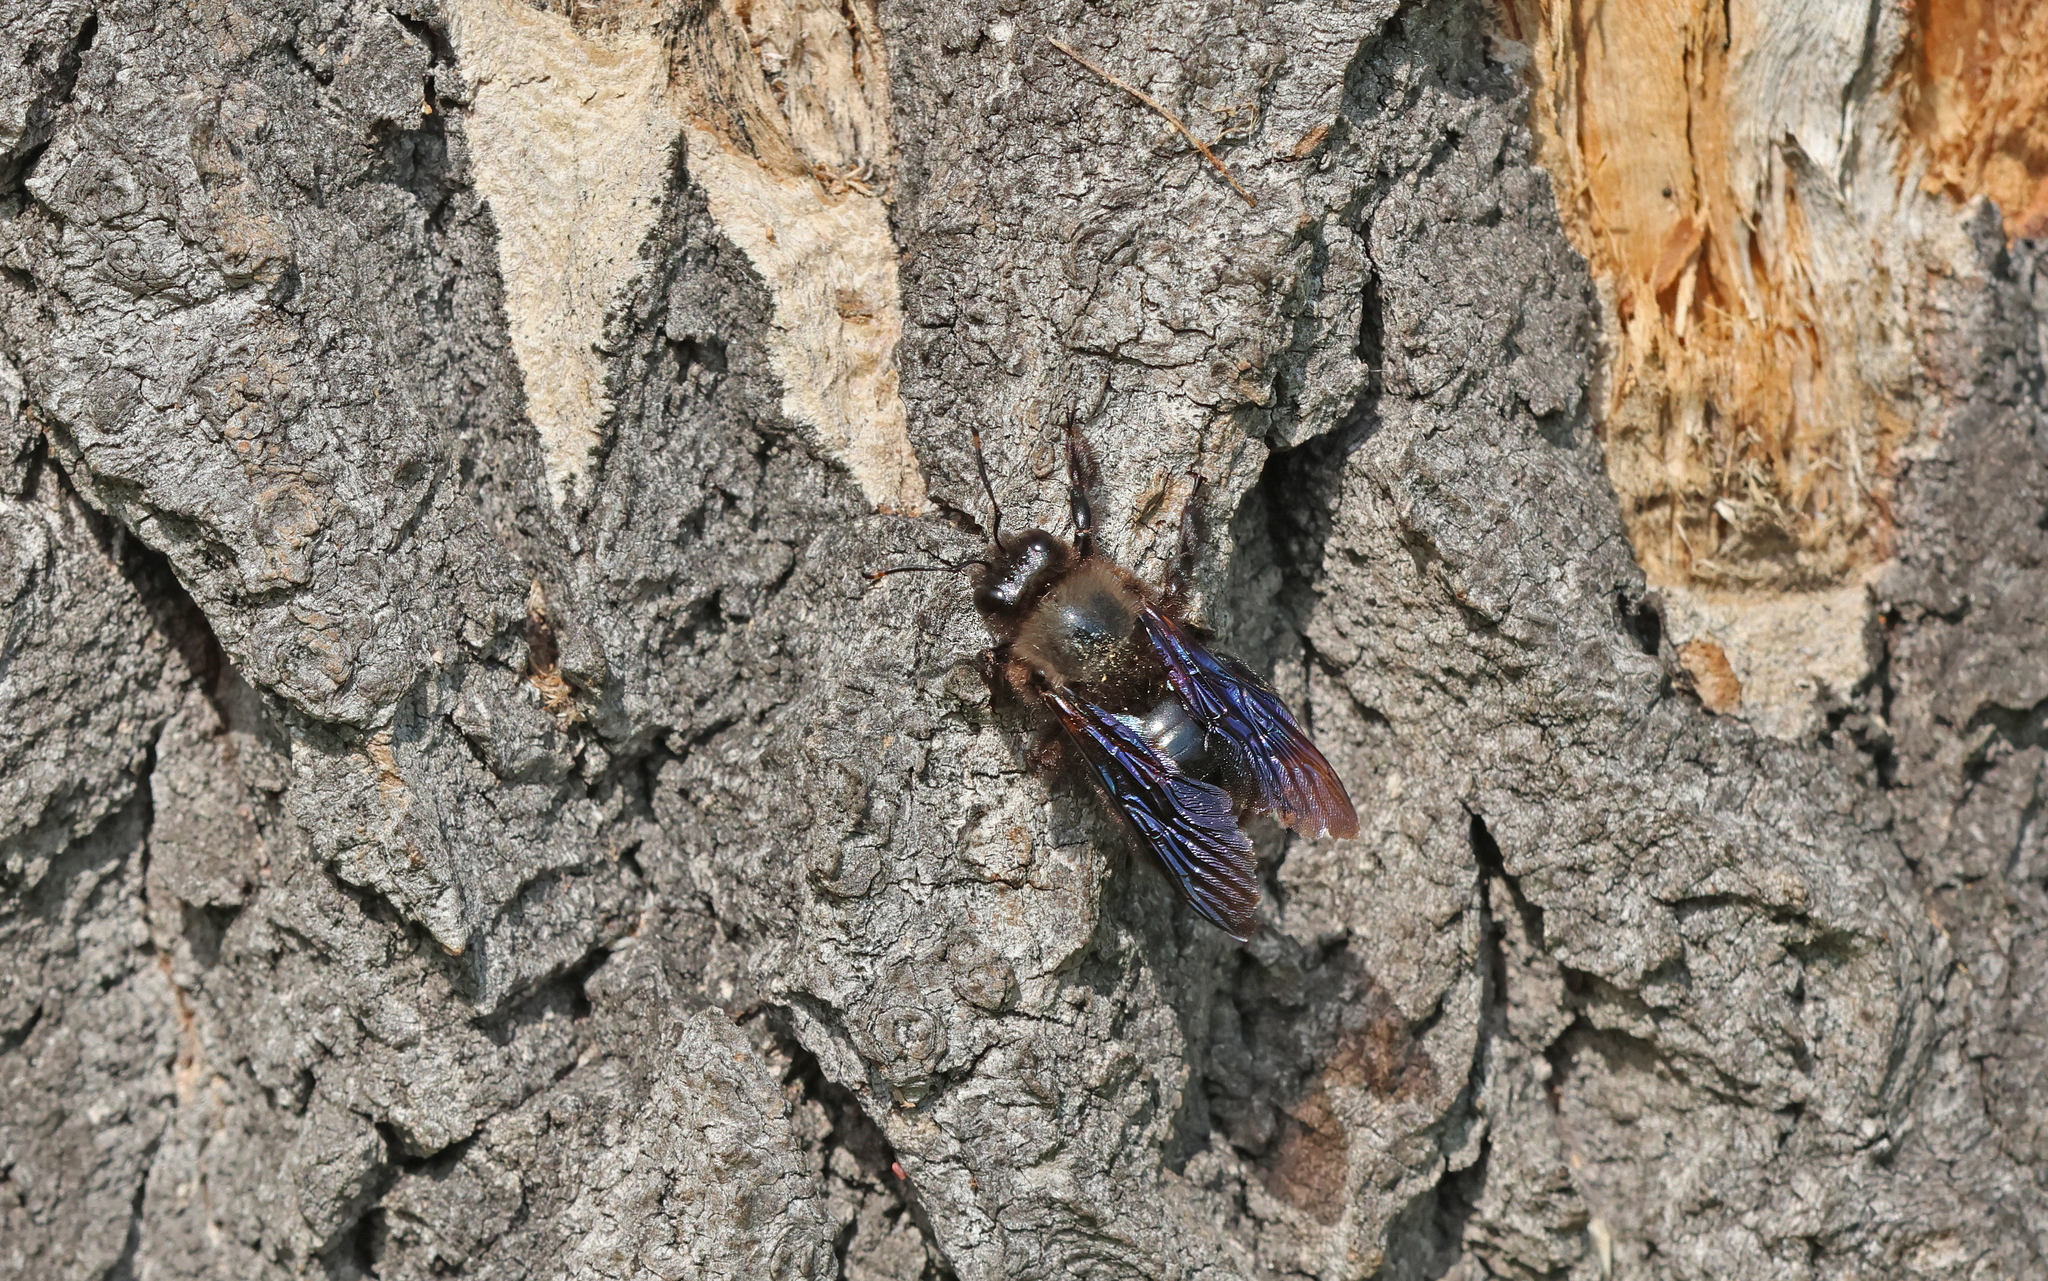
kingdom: Animalia
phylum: Arthropoda
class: Insecta
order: Hymenoptera
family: Apidae
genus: Xylocopa
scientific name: Xylocopa violacea
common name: Violet carpenter bee
